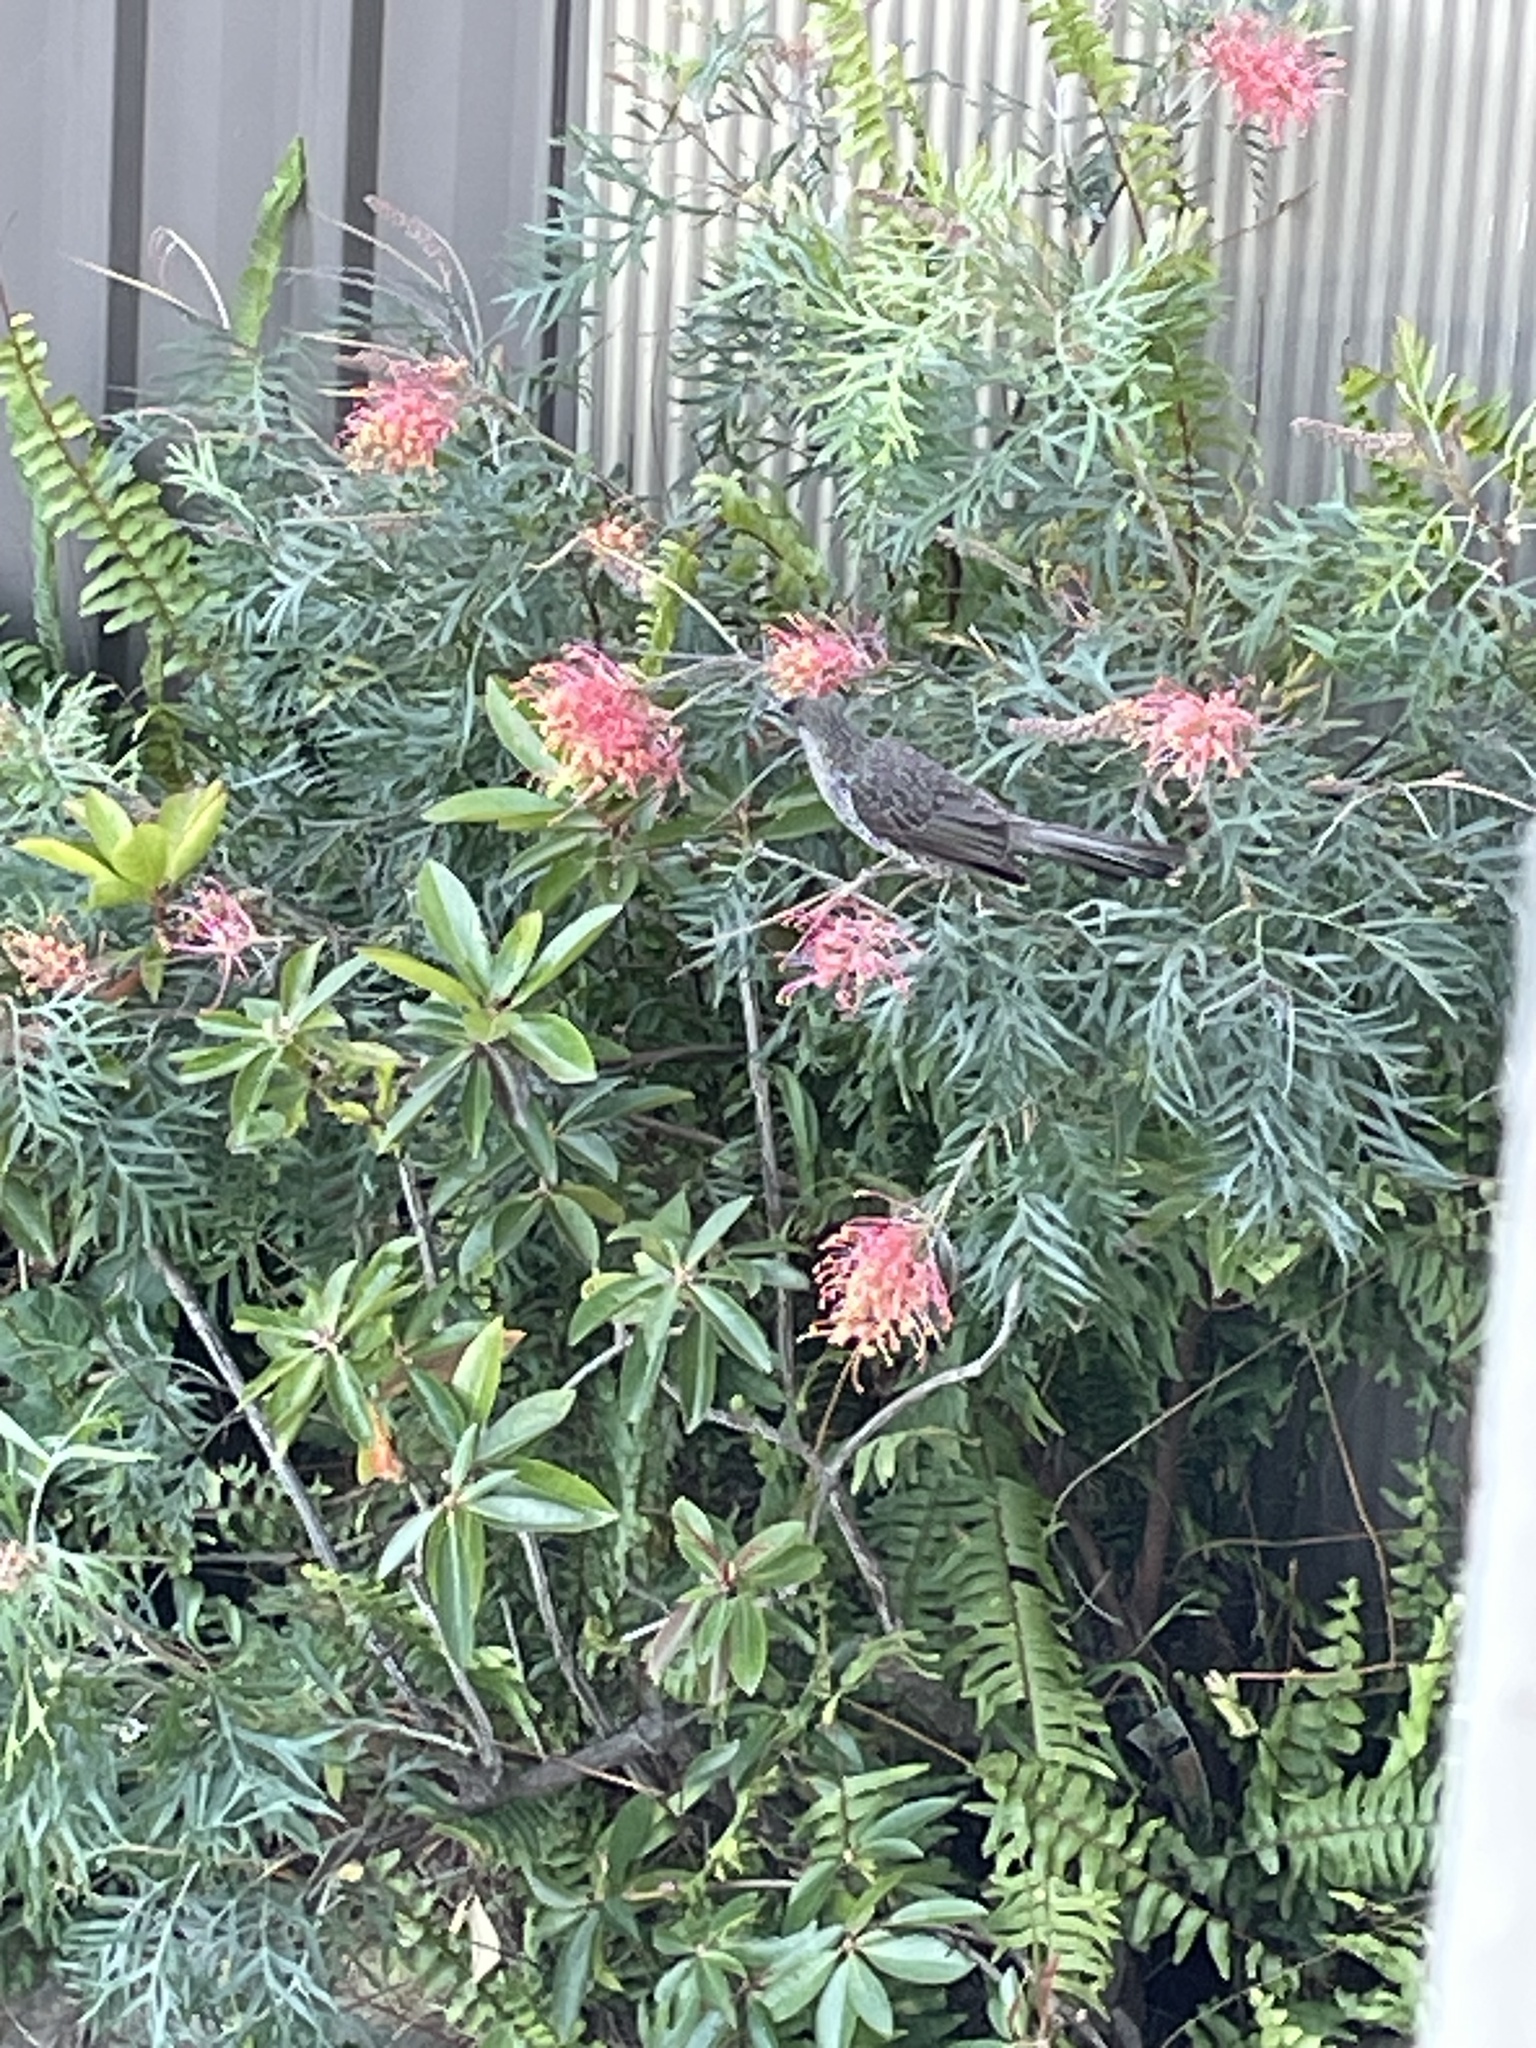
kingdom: Animalia
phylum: Chordata
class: Aves
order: Passeriformes
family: Meliphagidae
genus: Anthochaera
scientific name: Anthochaera chrysoptera
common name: Little wattlebird
